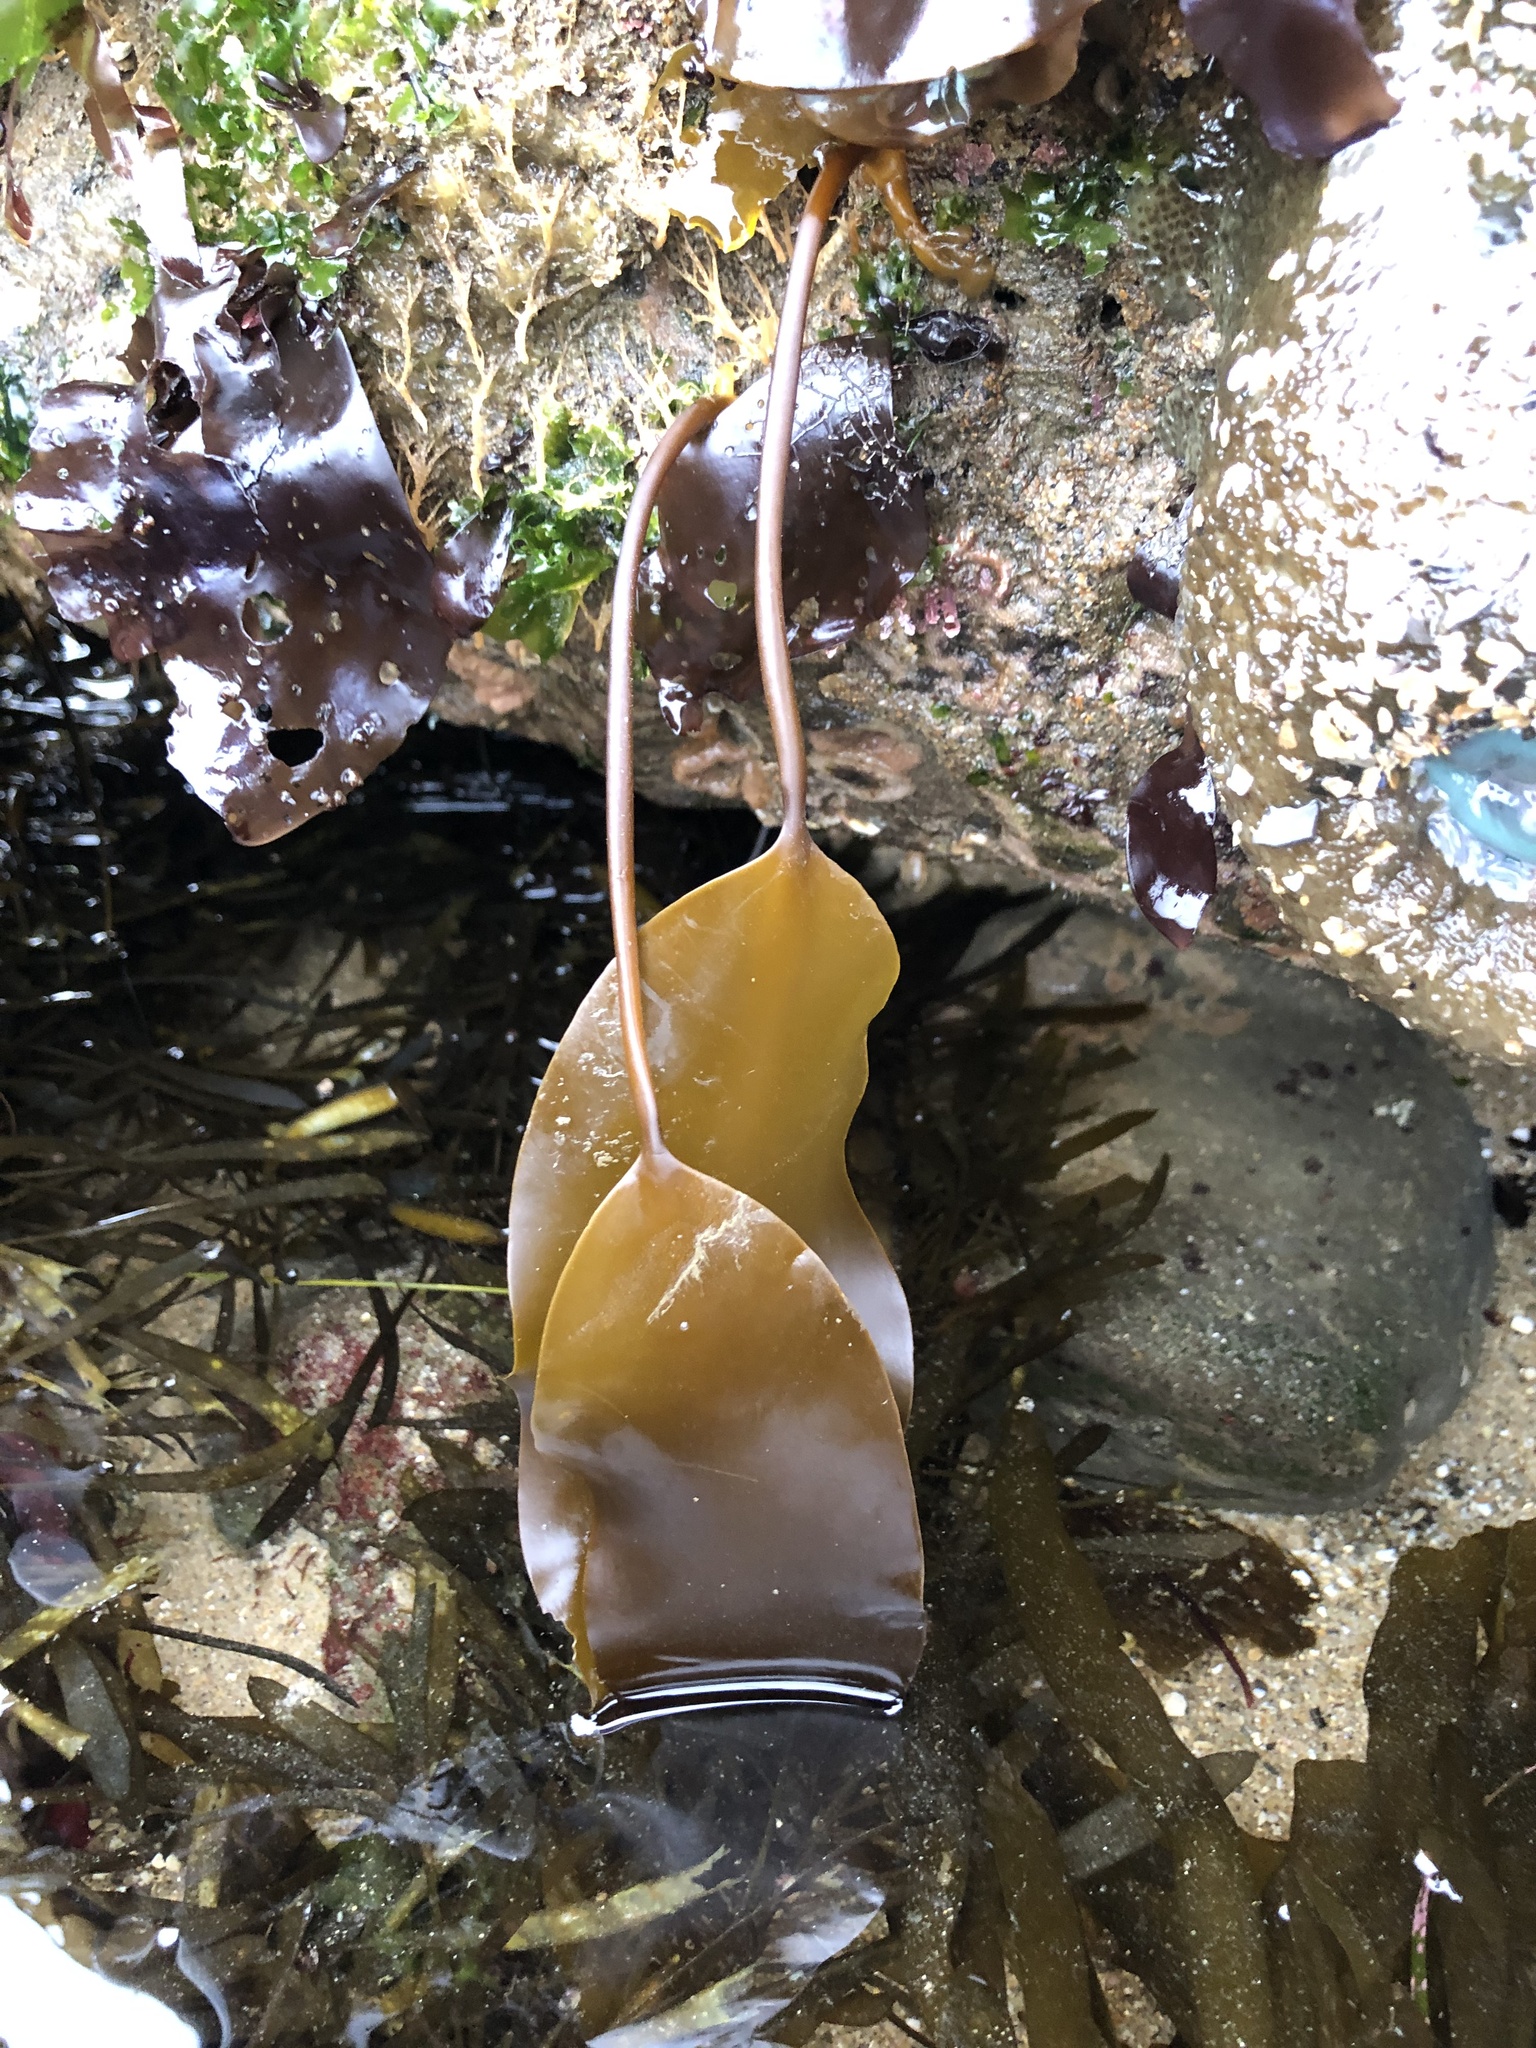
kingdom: Chromista
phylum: Ochrophyta
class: Phaeophyceae
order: Laminariales
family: Laminariaceae
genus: Laminaria
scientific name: Laminaria setchellii
